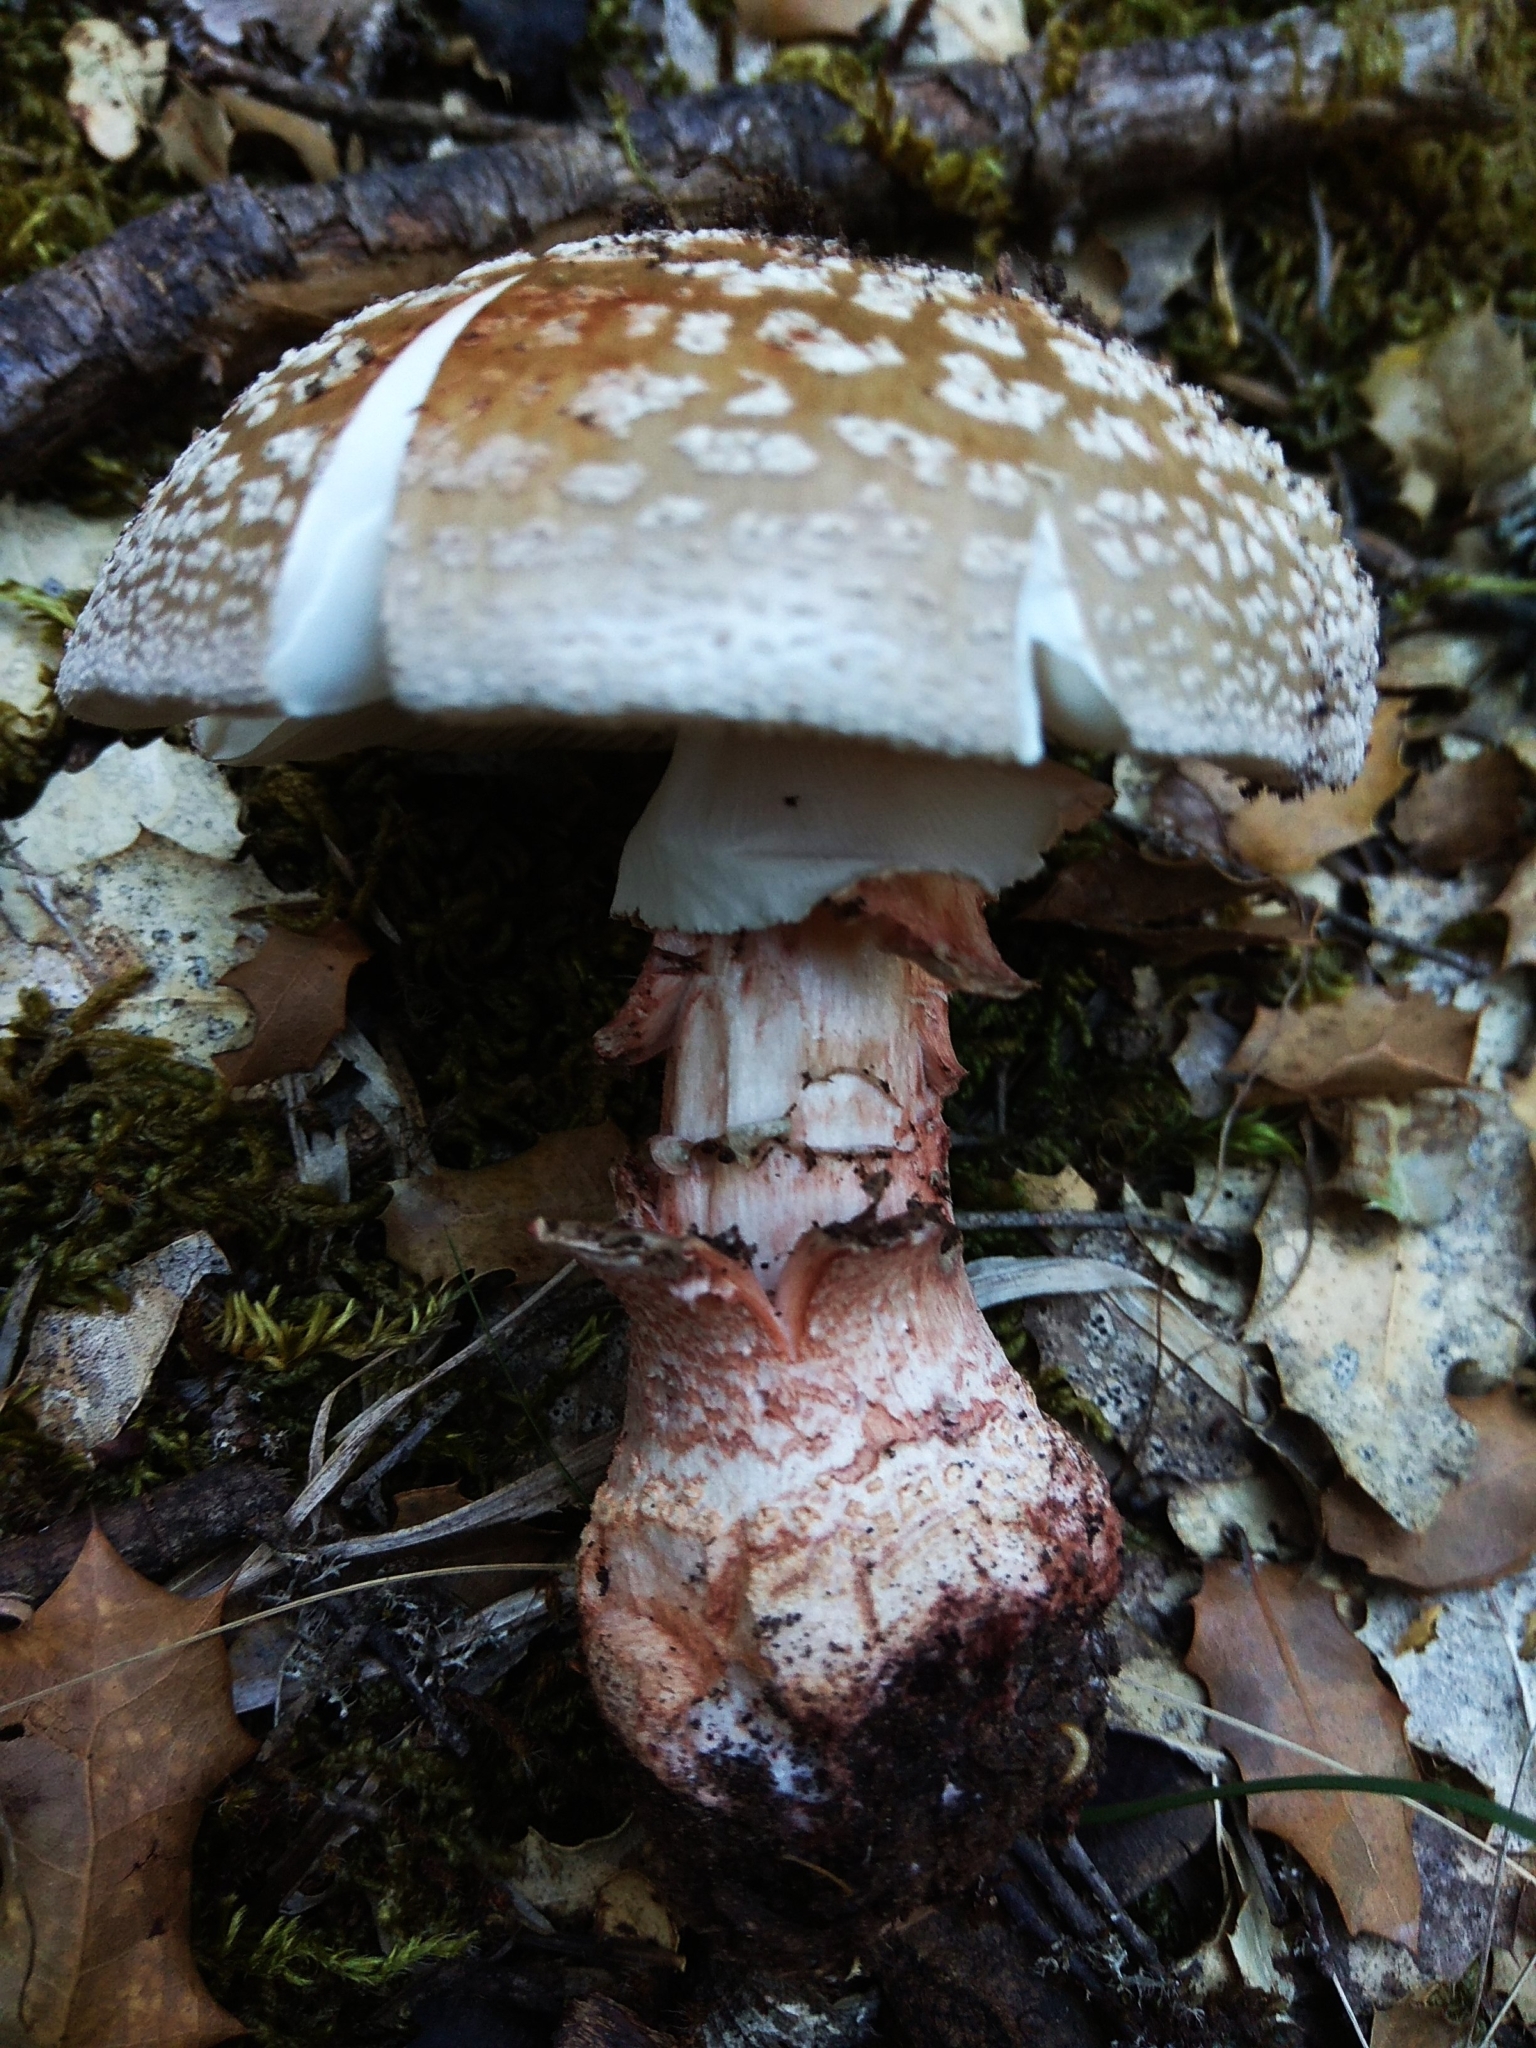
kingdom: Fungi
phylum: Basidiomycota
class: Agaricomycetes
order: Agaricales
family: Amanitaceae
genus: Amanita
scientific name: Amanita rubescens
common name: Blusher
